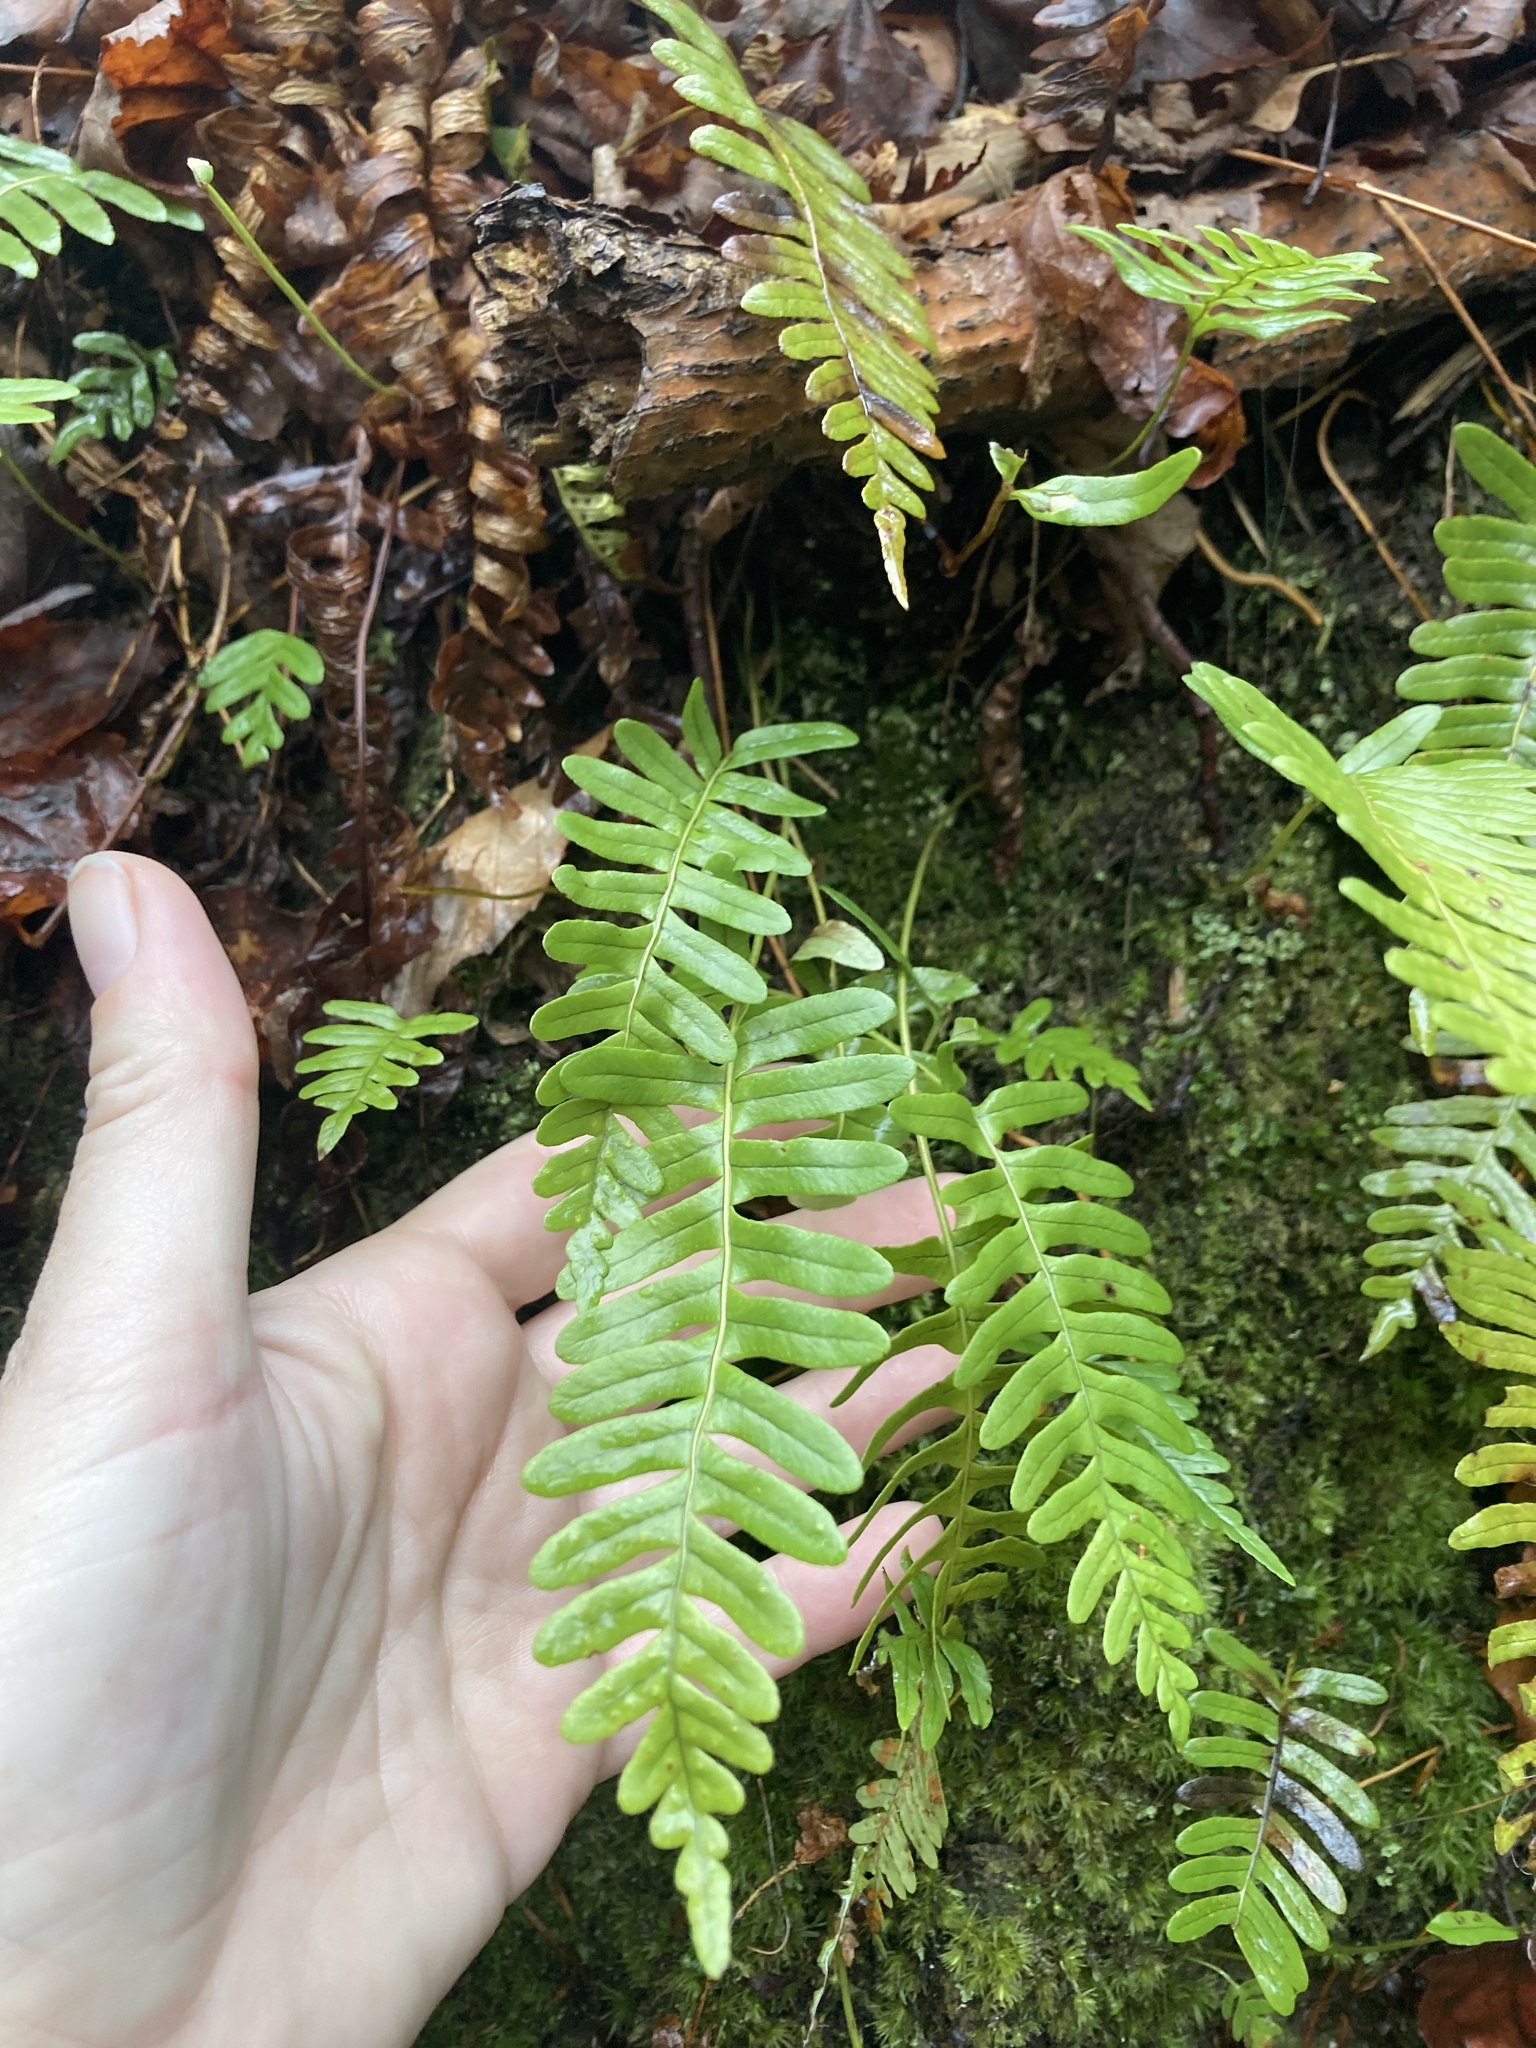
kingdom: Plantae
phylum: Tracheophyta
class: Polypodiopsida
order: Polypodiales
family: Polypodiaceae
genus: Polypodium
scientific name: Polypodium virginianum
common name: American wall fern
